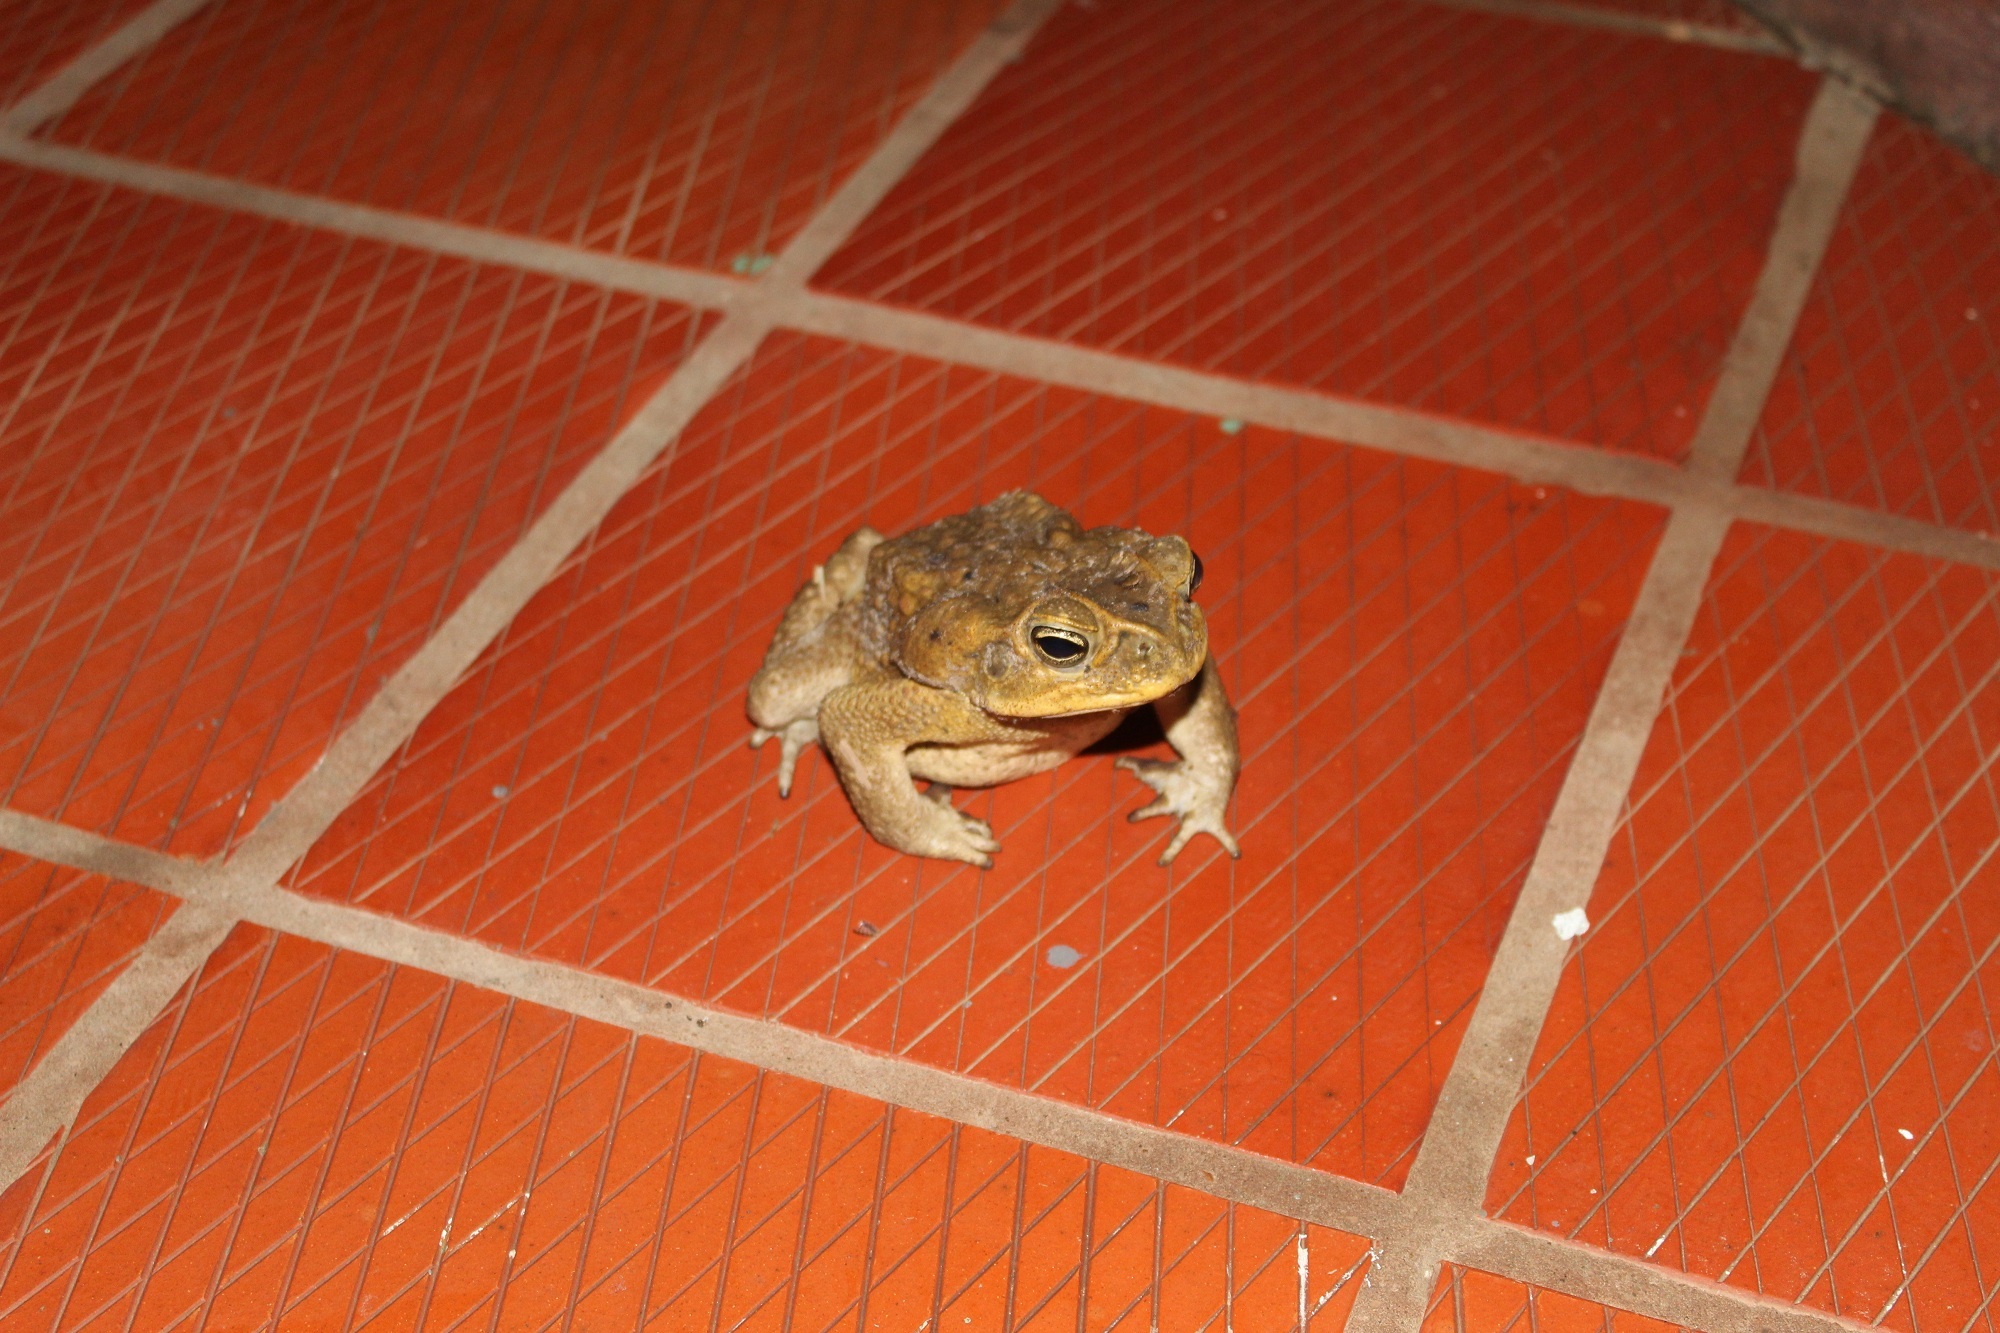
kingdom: Animalia
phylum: Chordata
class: Amphibia
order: Anura
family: Bufonidae
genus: Rhinella
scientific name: Rhinella marina
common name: Cane toad
